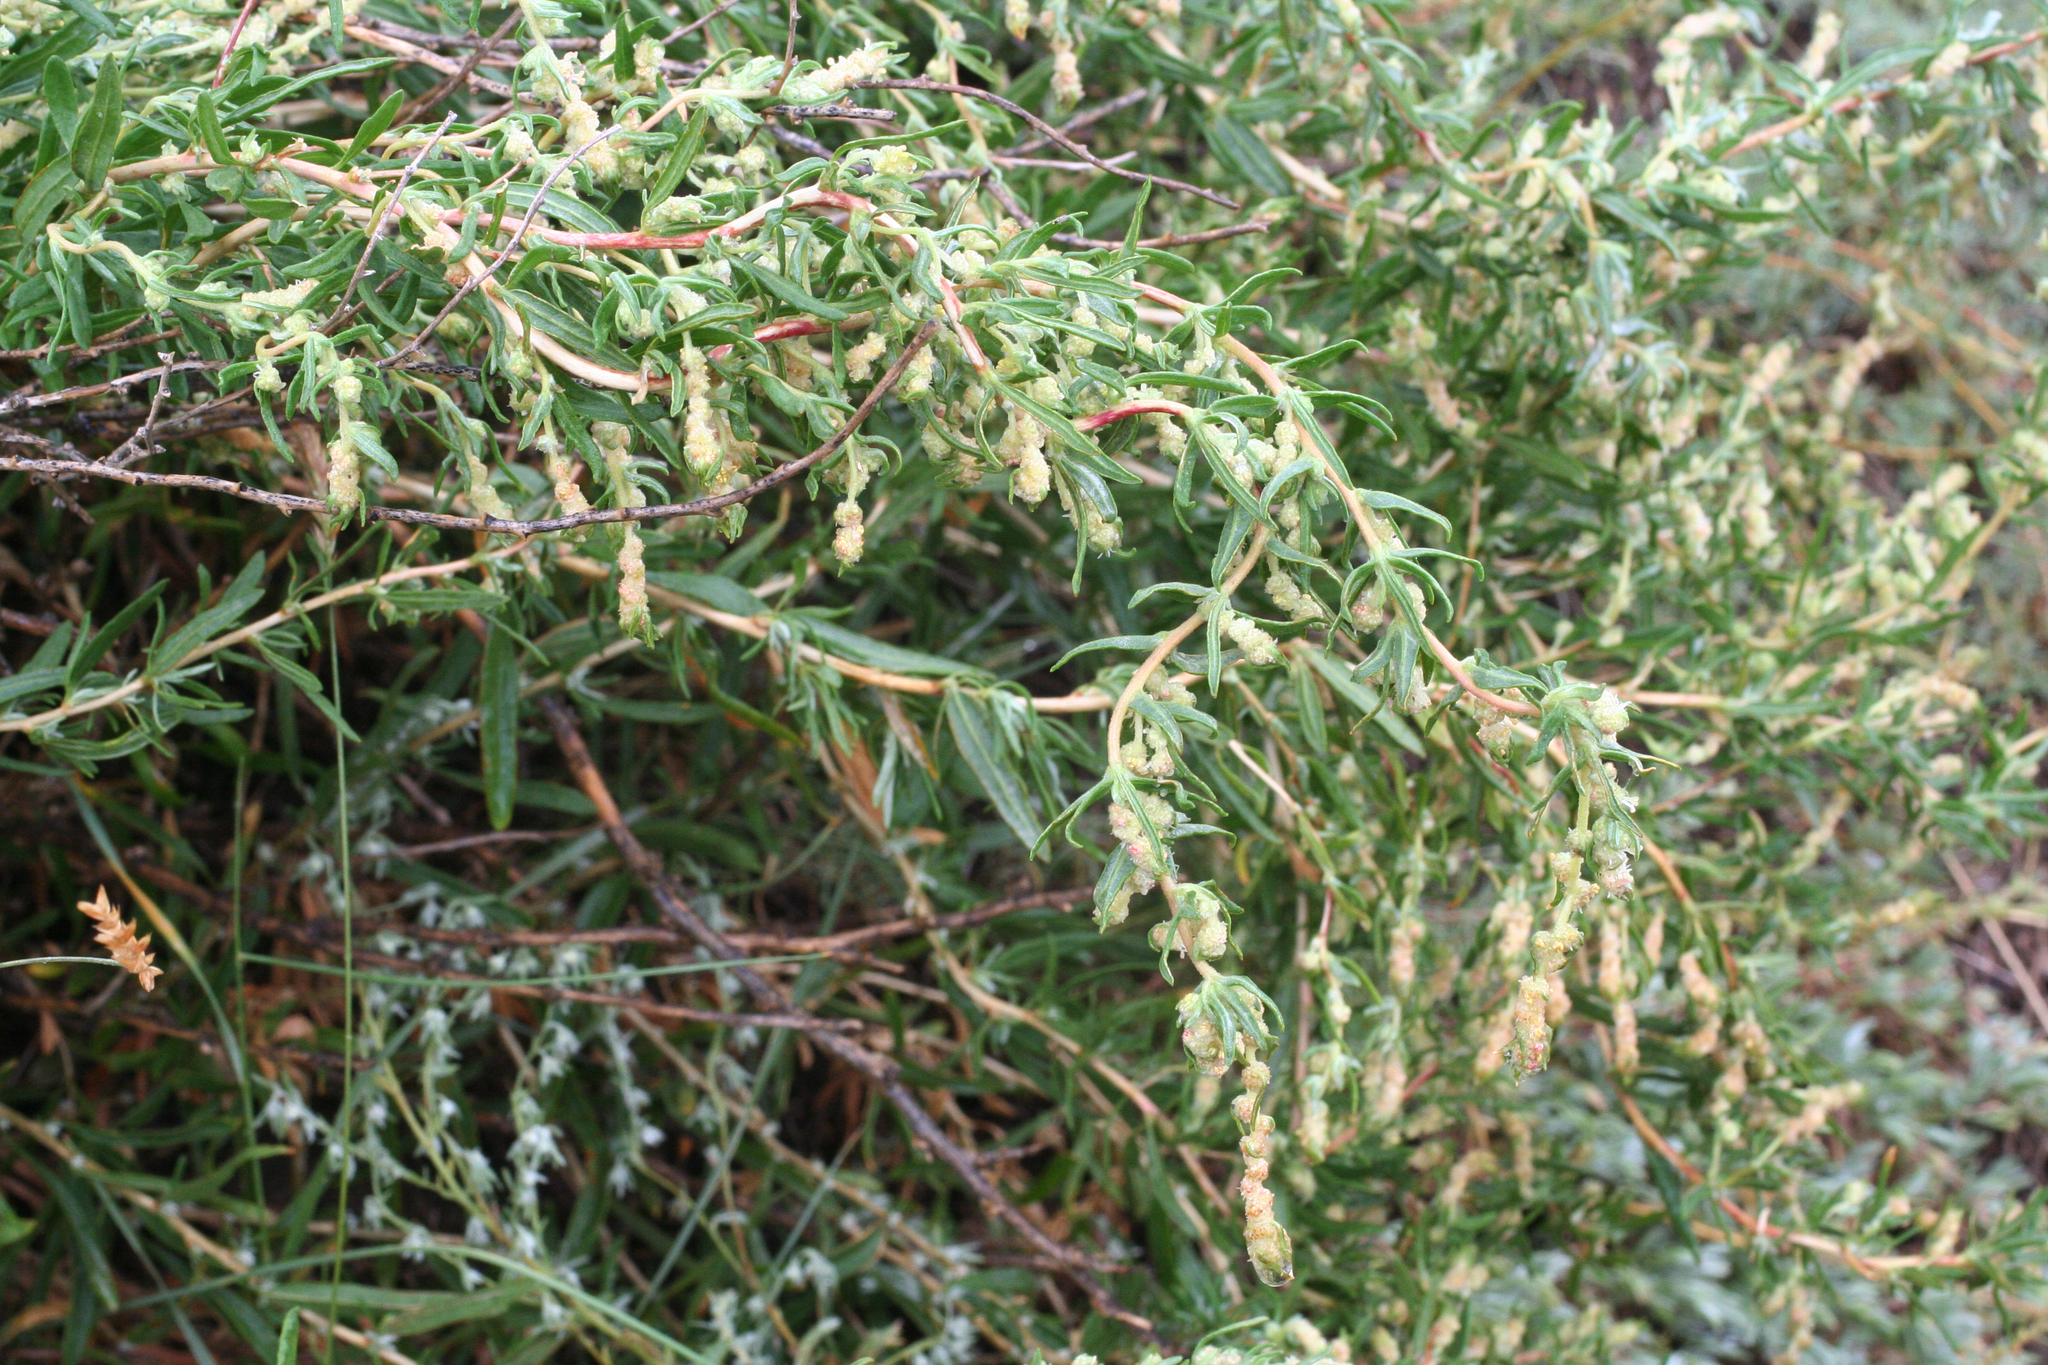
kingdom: Plantae
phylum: Tracheophyta
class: Magnoliopsida
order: Caryophyllales
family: Amaranthaceae
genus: Krascheninnikovia
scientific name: Krascheninnikovia ceratoides
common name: Pamirian winterfat
